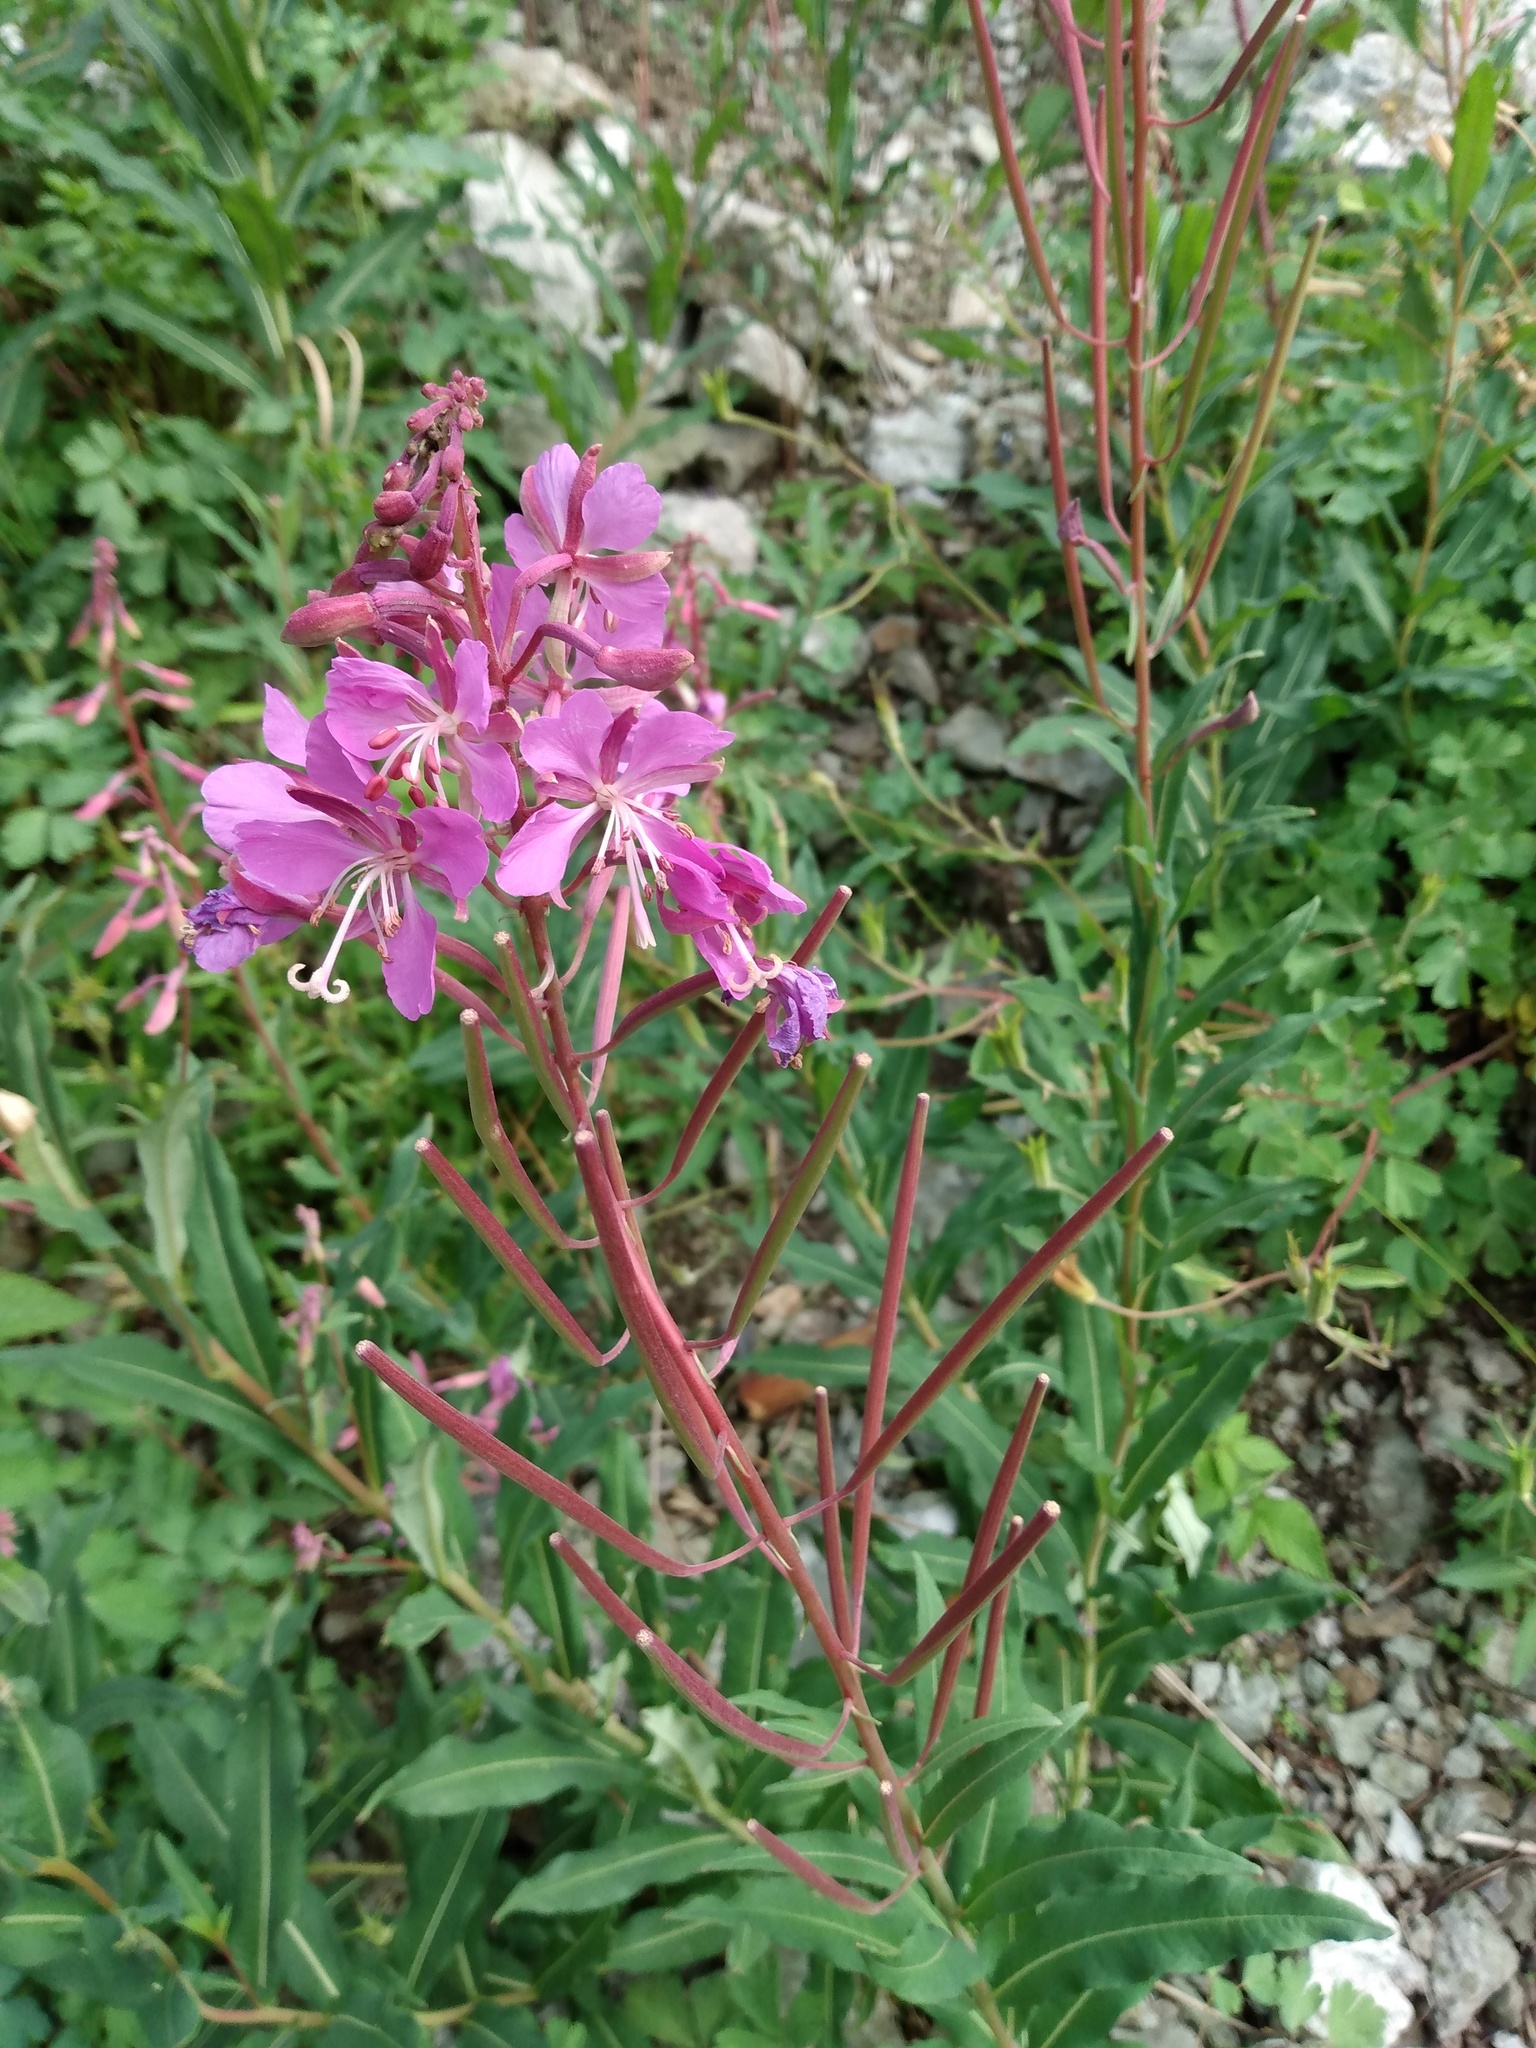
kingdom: Plantae
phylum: Tracheophyta
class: Magnoliopsida
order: Myrtales
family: Onagraceae
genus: Chamaenerion
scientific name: Chamaenerion angustifolium
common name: Fireweed
